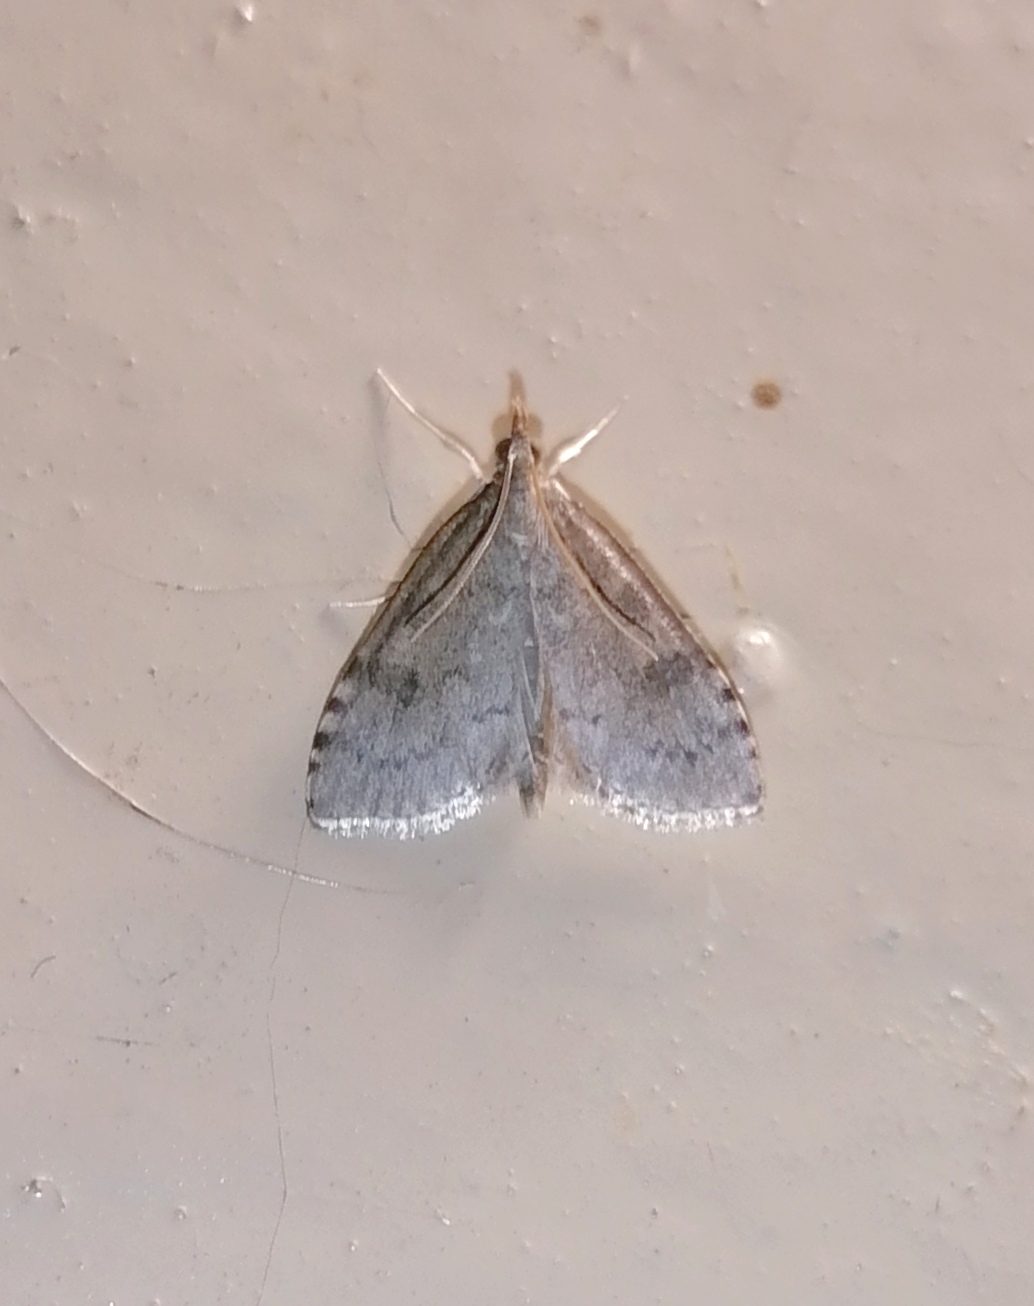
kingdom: Animalia
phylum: Arthropoda
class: Insecta
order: Lepidoptera
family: Crambidae
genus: Udea
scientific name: Udea prunalis
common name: Dusky pearl
